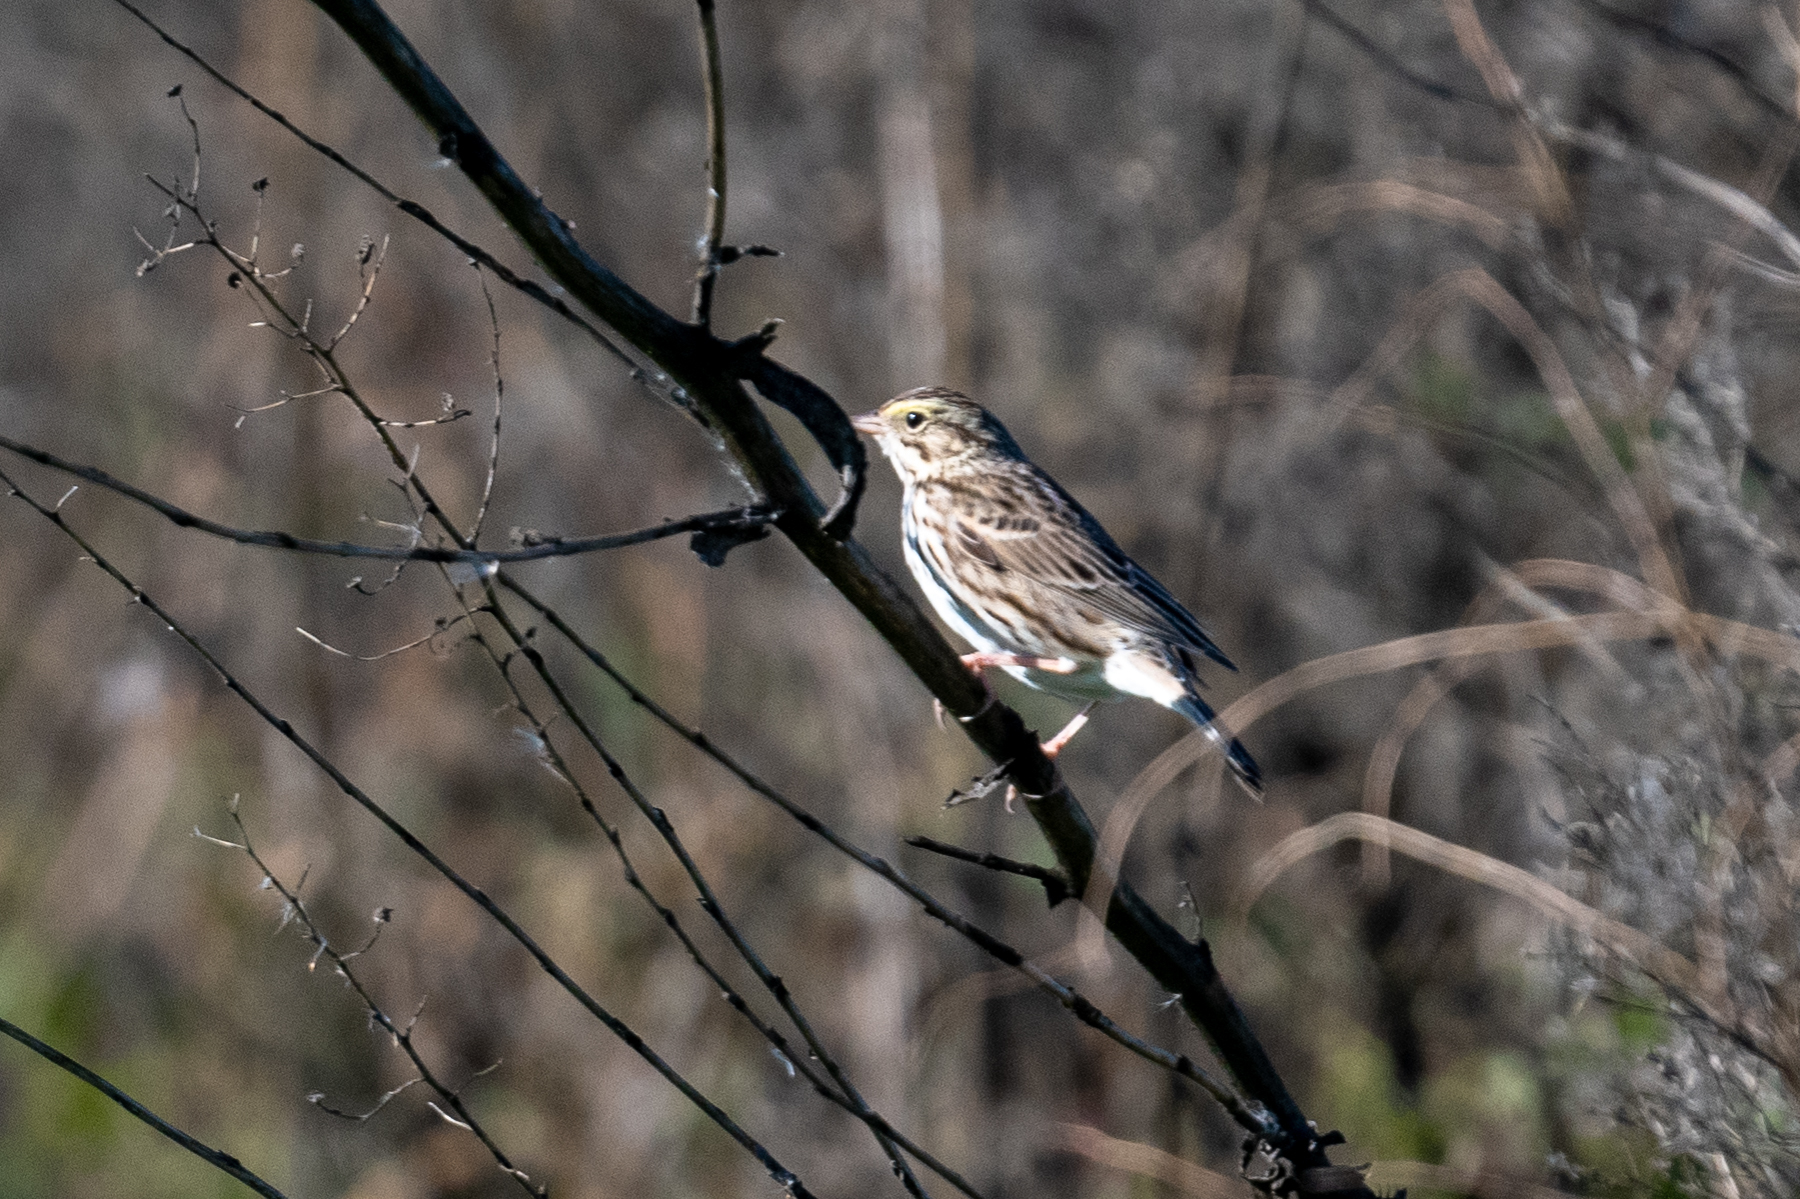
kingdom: Animalia
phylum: Chordata
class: Aves
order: Passeriformes
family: Passerellidae
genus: Passerculus
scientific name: Passerculus sandwichensis
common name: Savannah sparrow
